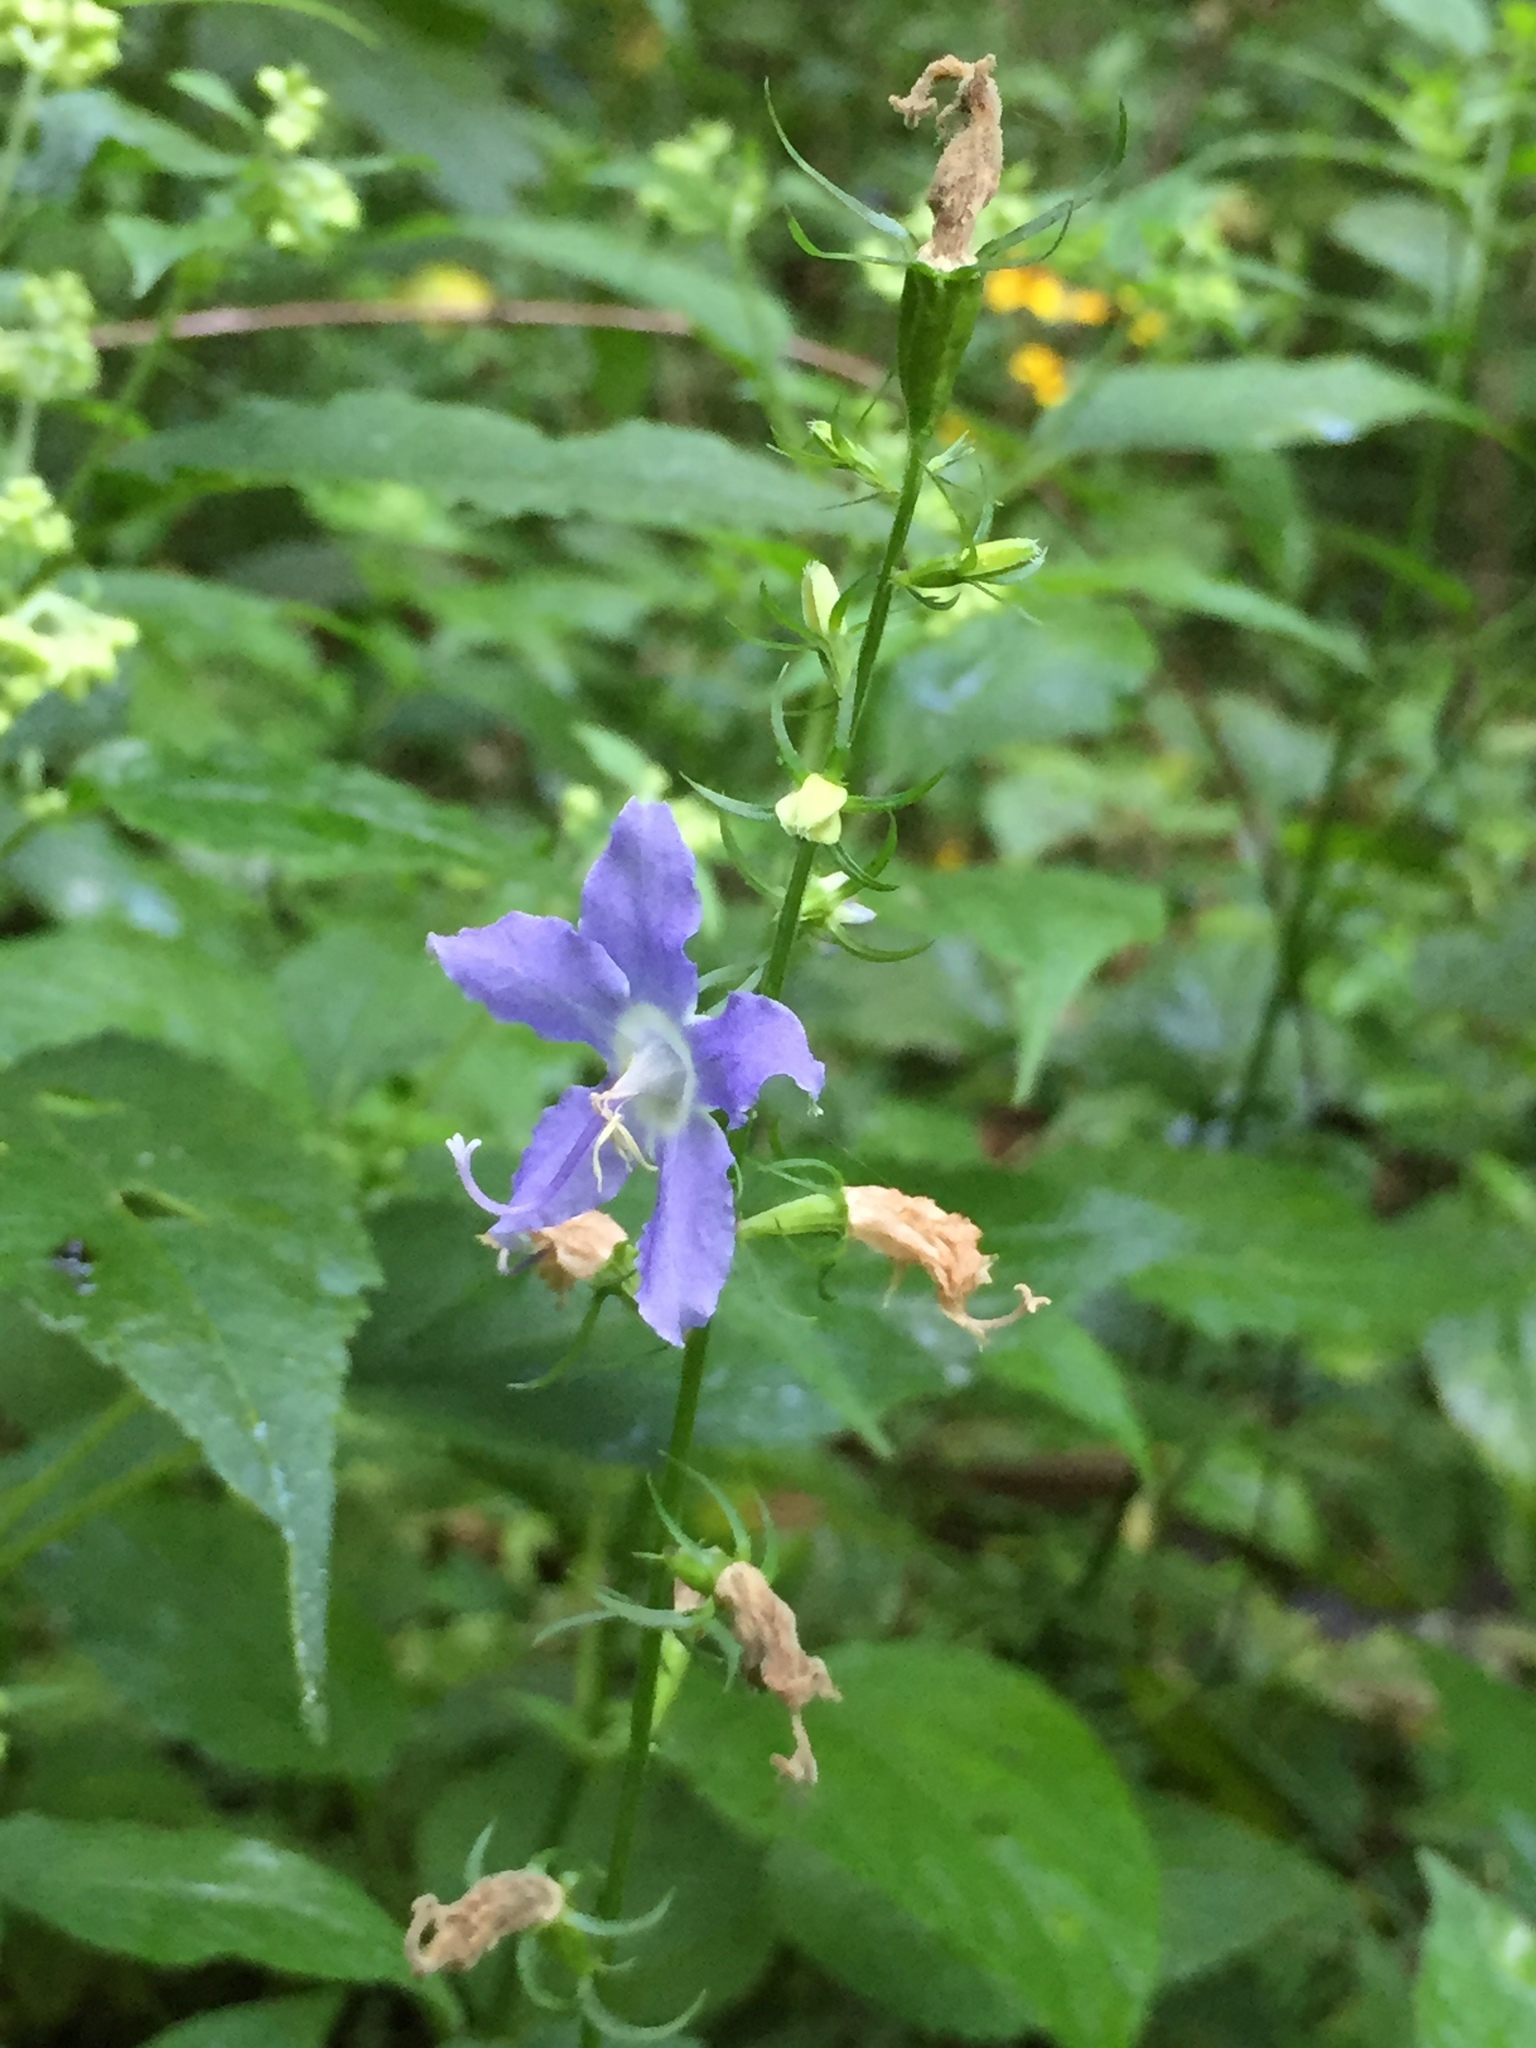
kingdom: Plantae
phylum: Tracheophyta
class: Magnoliopsida
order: Asterales
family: Campanulaceae
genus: Campanulastrum
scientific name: Campanulastrum americanum
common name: American bellflower
